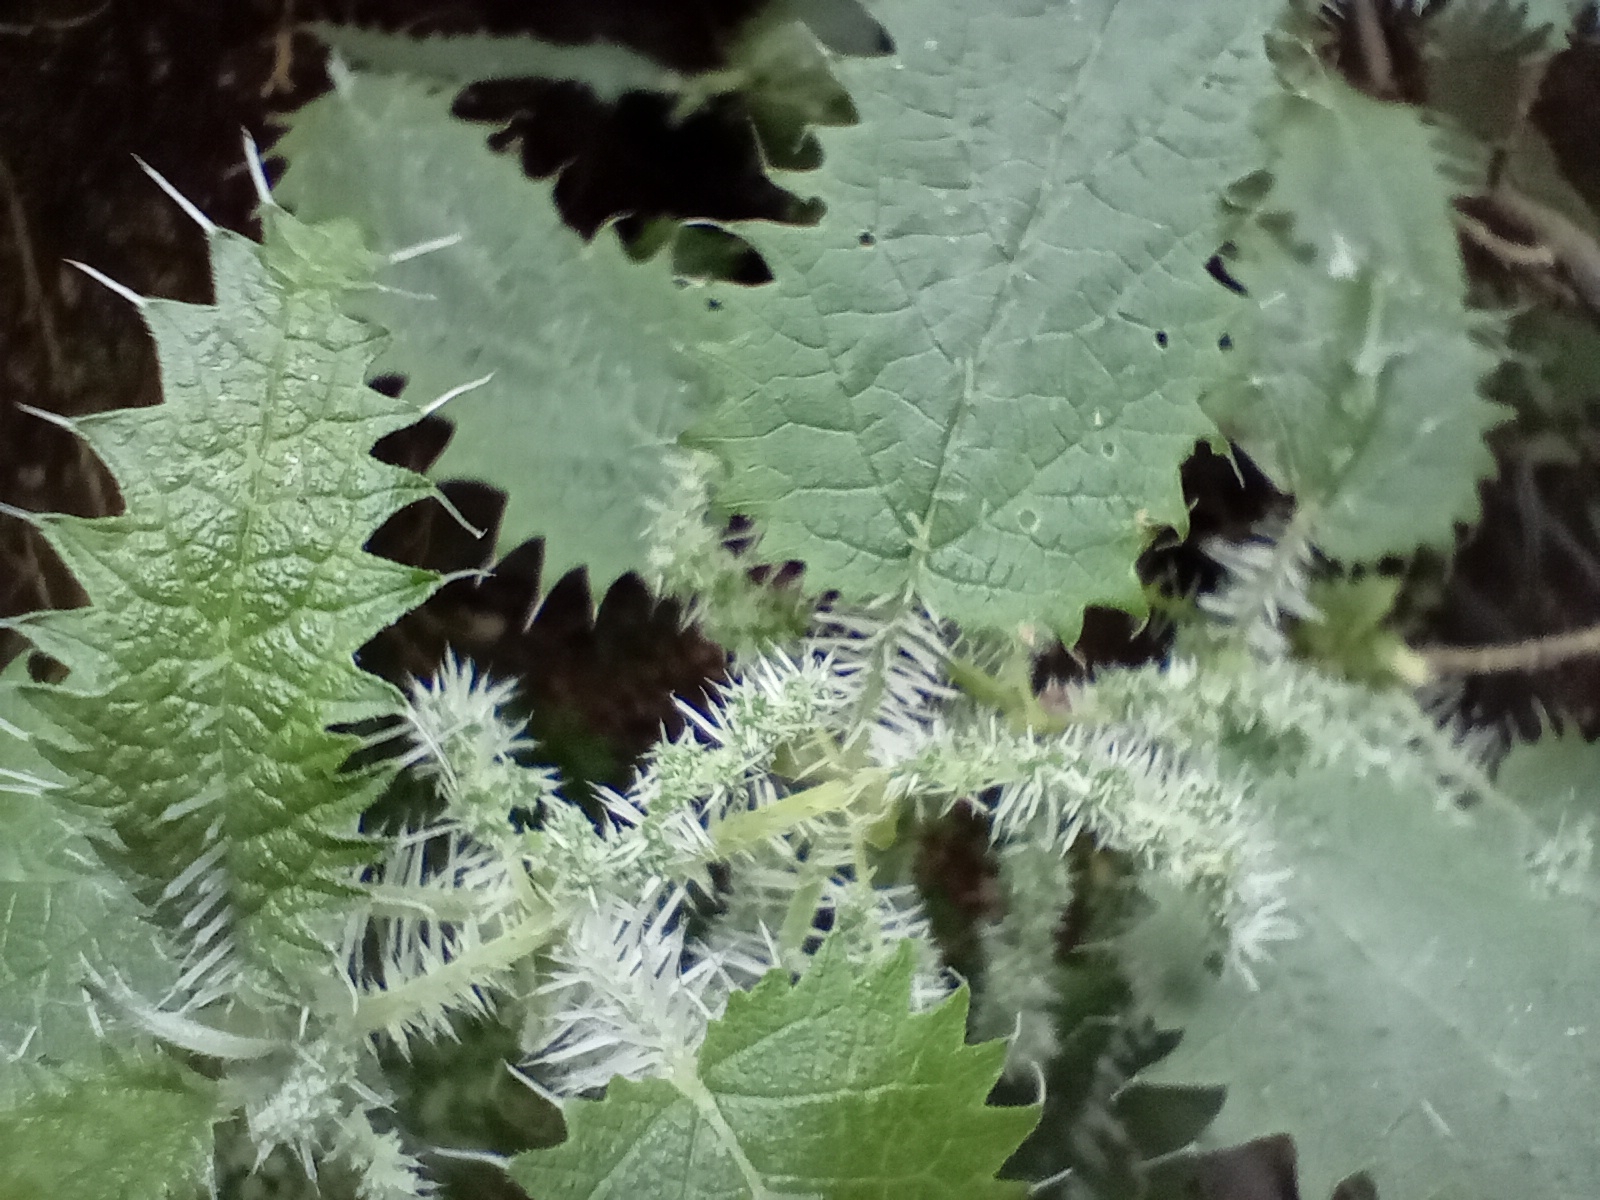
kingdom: Plantae
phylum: Tracheophyta
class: Magnoliopsida
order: Rosales
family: Urticaceae
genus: Urtica
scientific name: Urtica ferox
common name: Tree nettle
